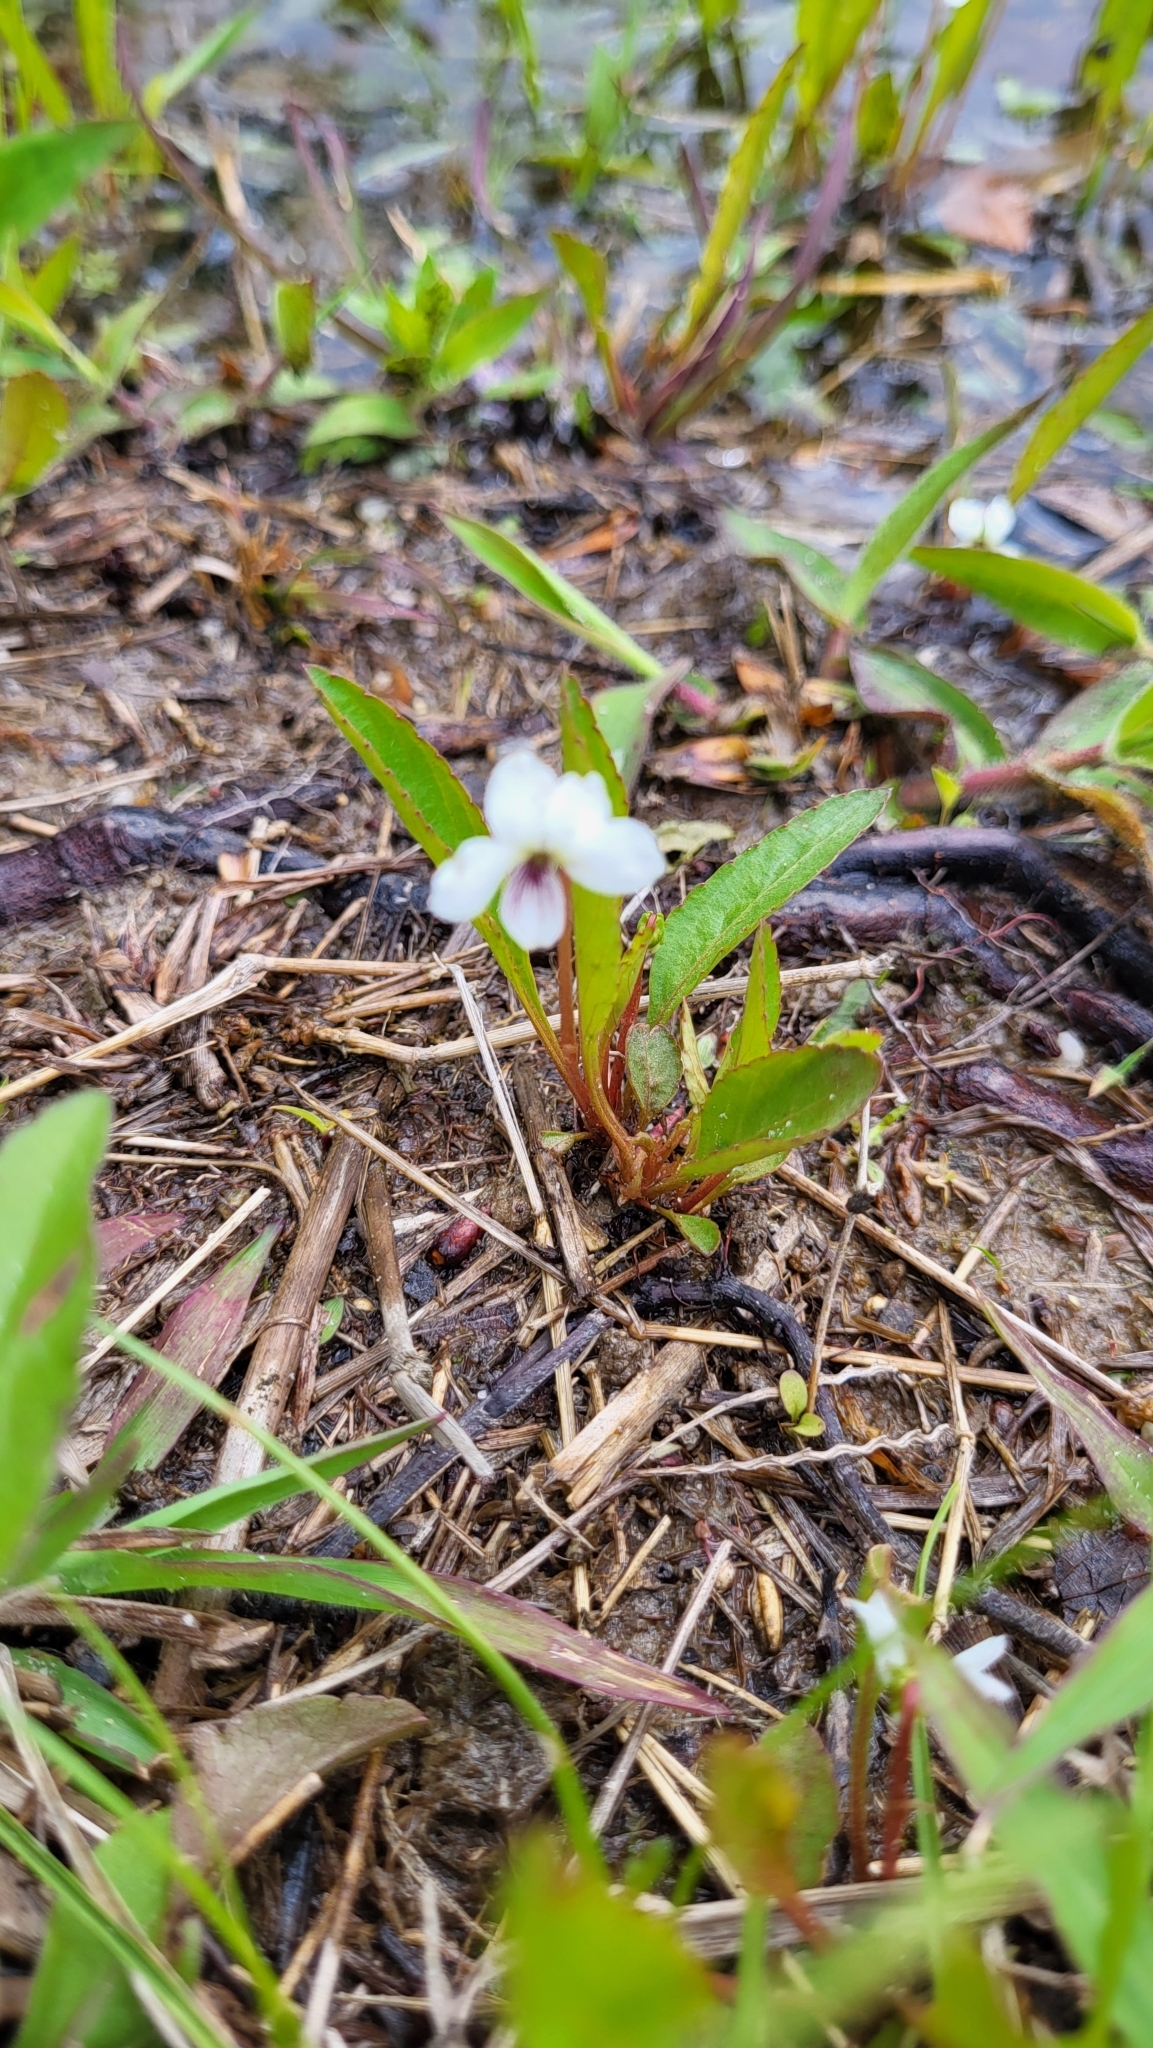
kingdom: Plantae
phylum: Tracheophyta
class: Magnoliopsida
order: Malpighiales
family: Violaceae
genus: Viola
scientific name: Viola lanceolata
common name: Bog white violet
